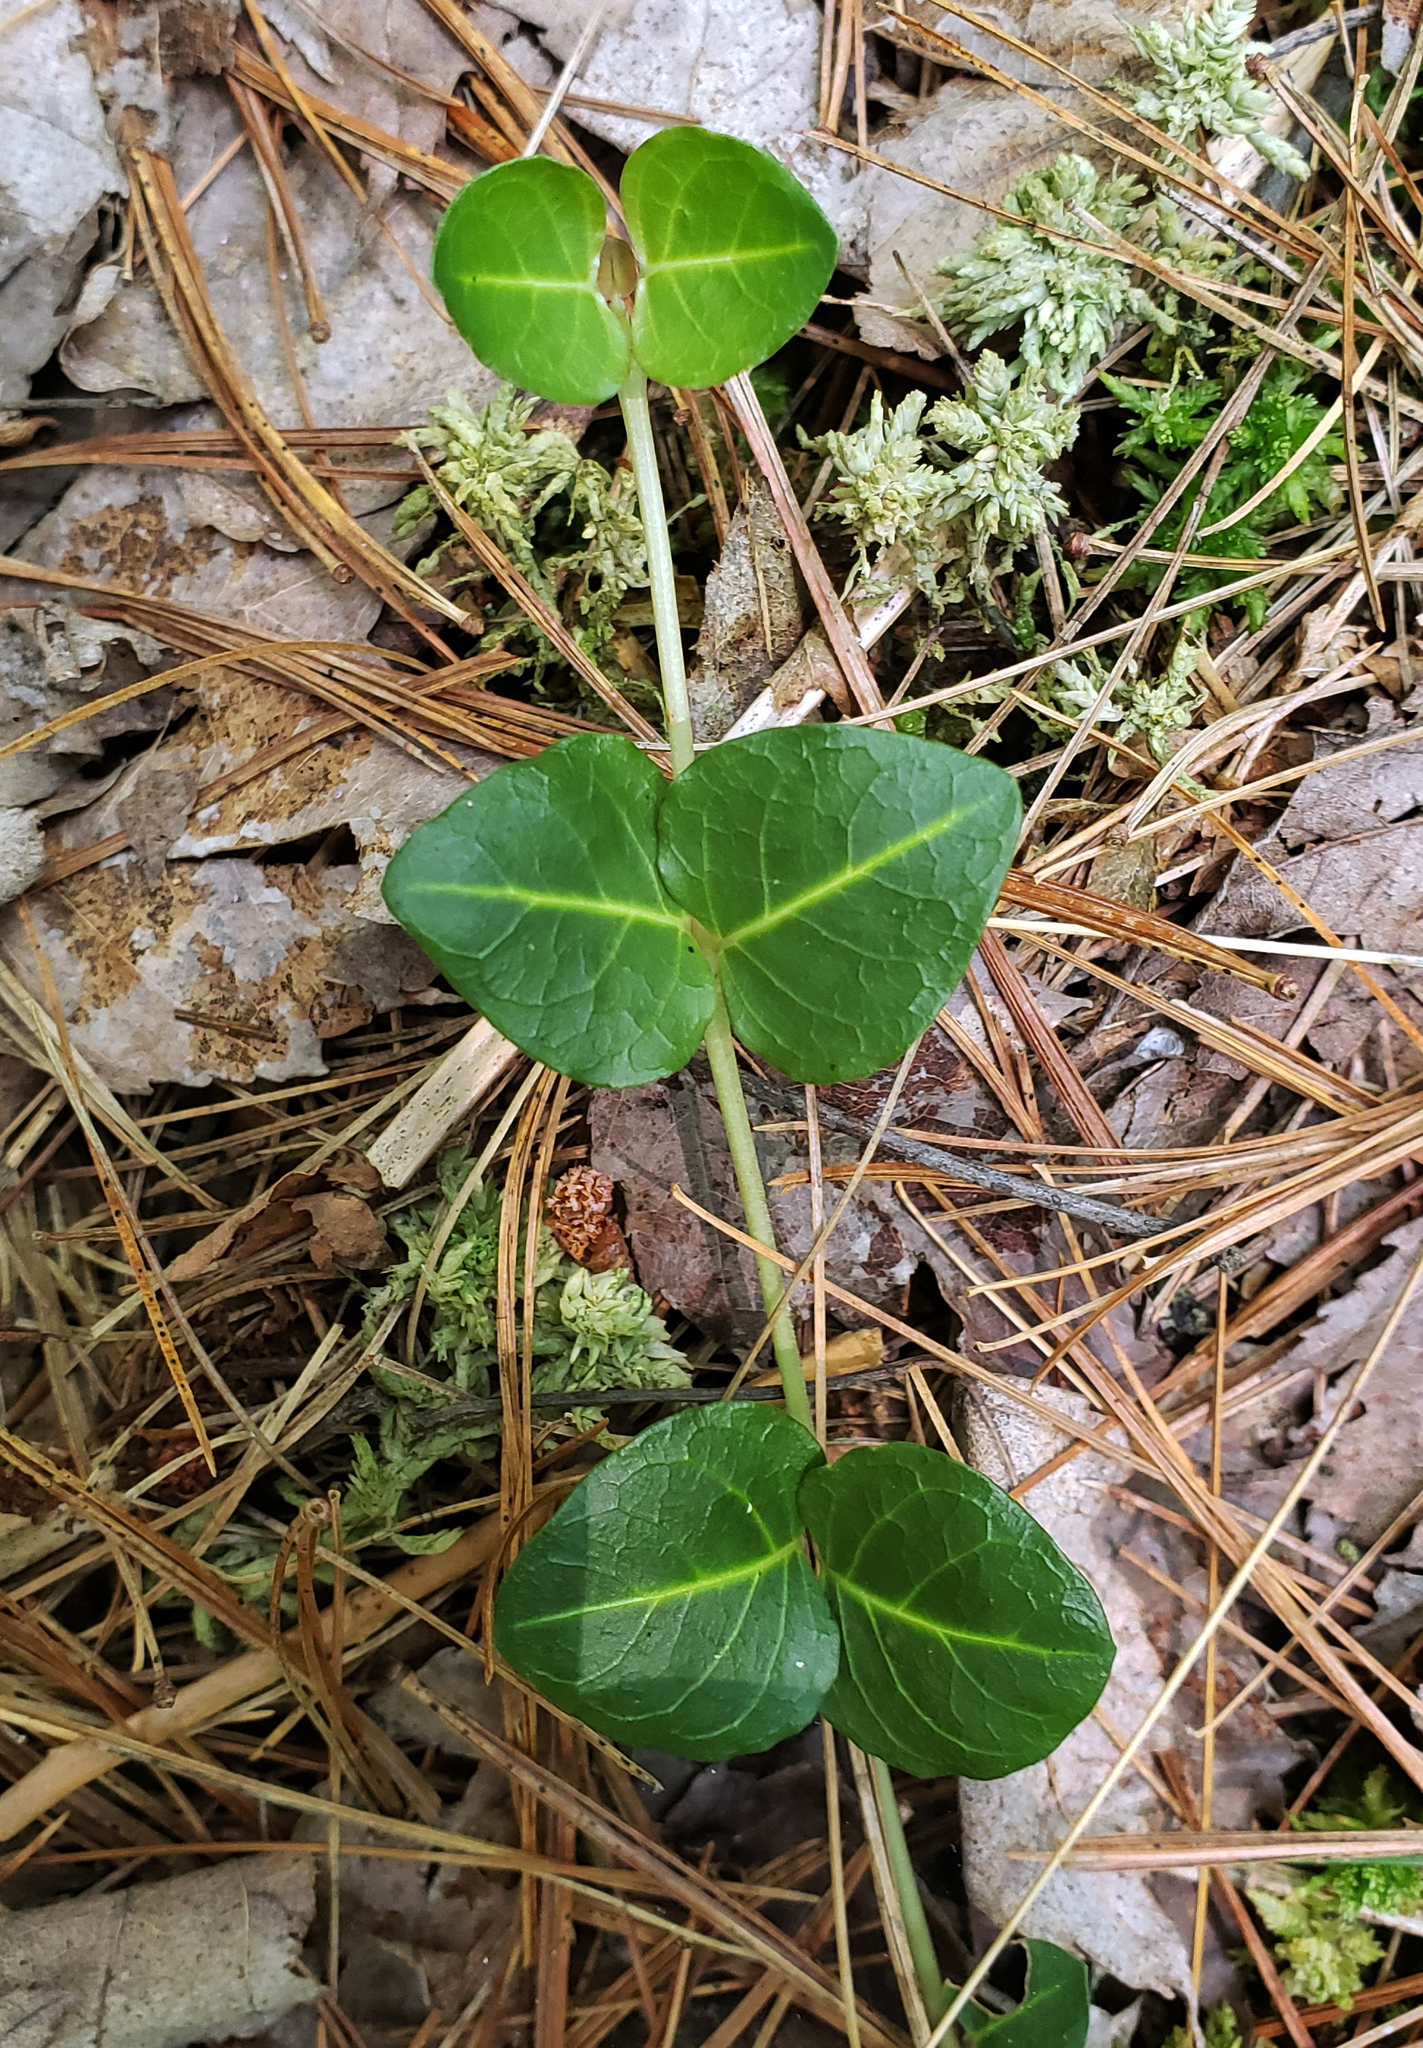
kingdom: Plantae
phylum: Tracheophyta
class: Magnoliopsida
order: Gentianales
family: Rubiaceae
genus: Mitchella
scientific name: Mitchella repens
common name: Partridge-berry
